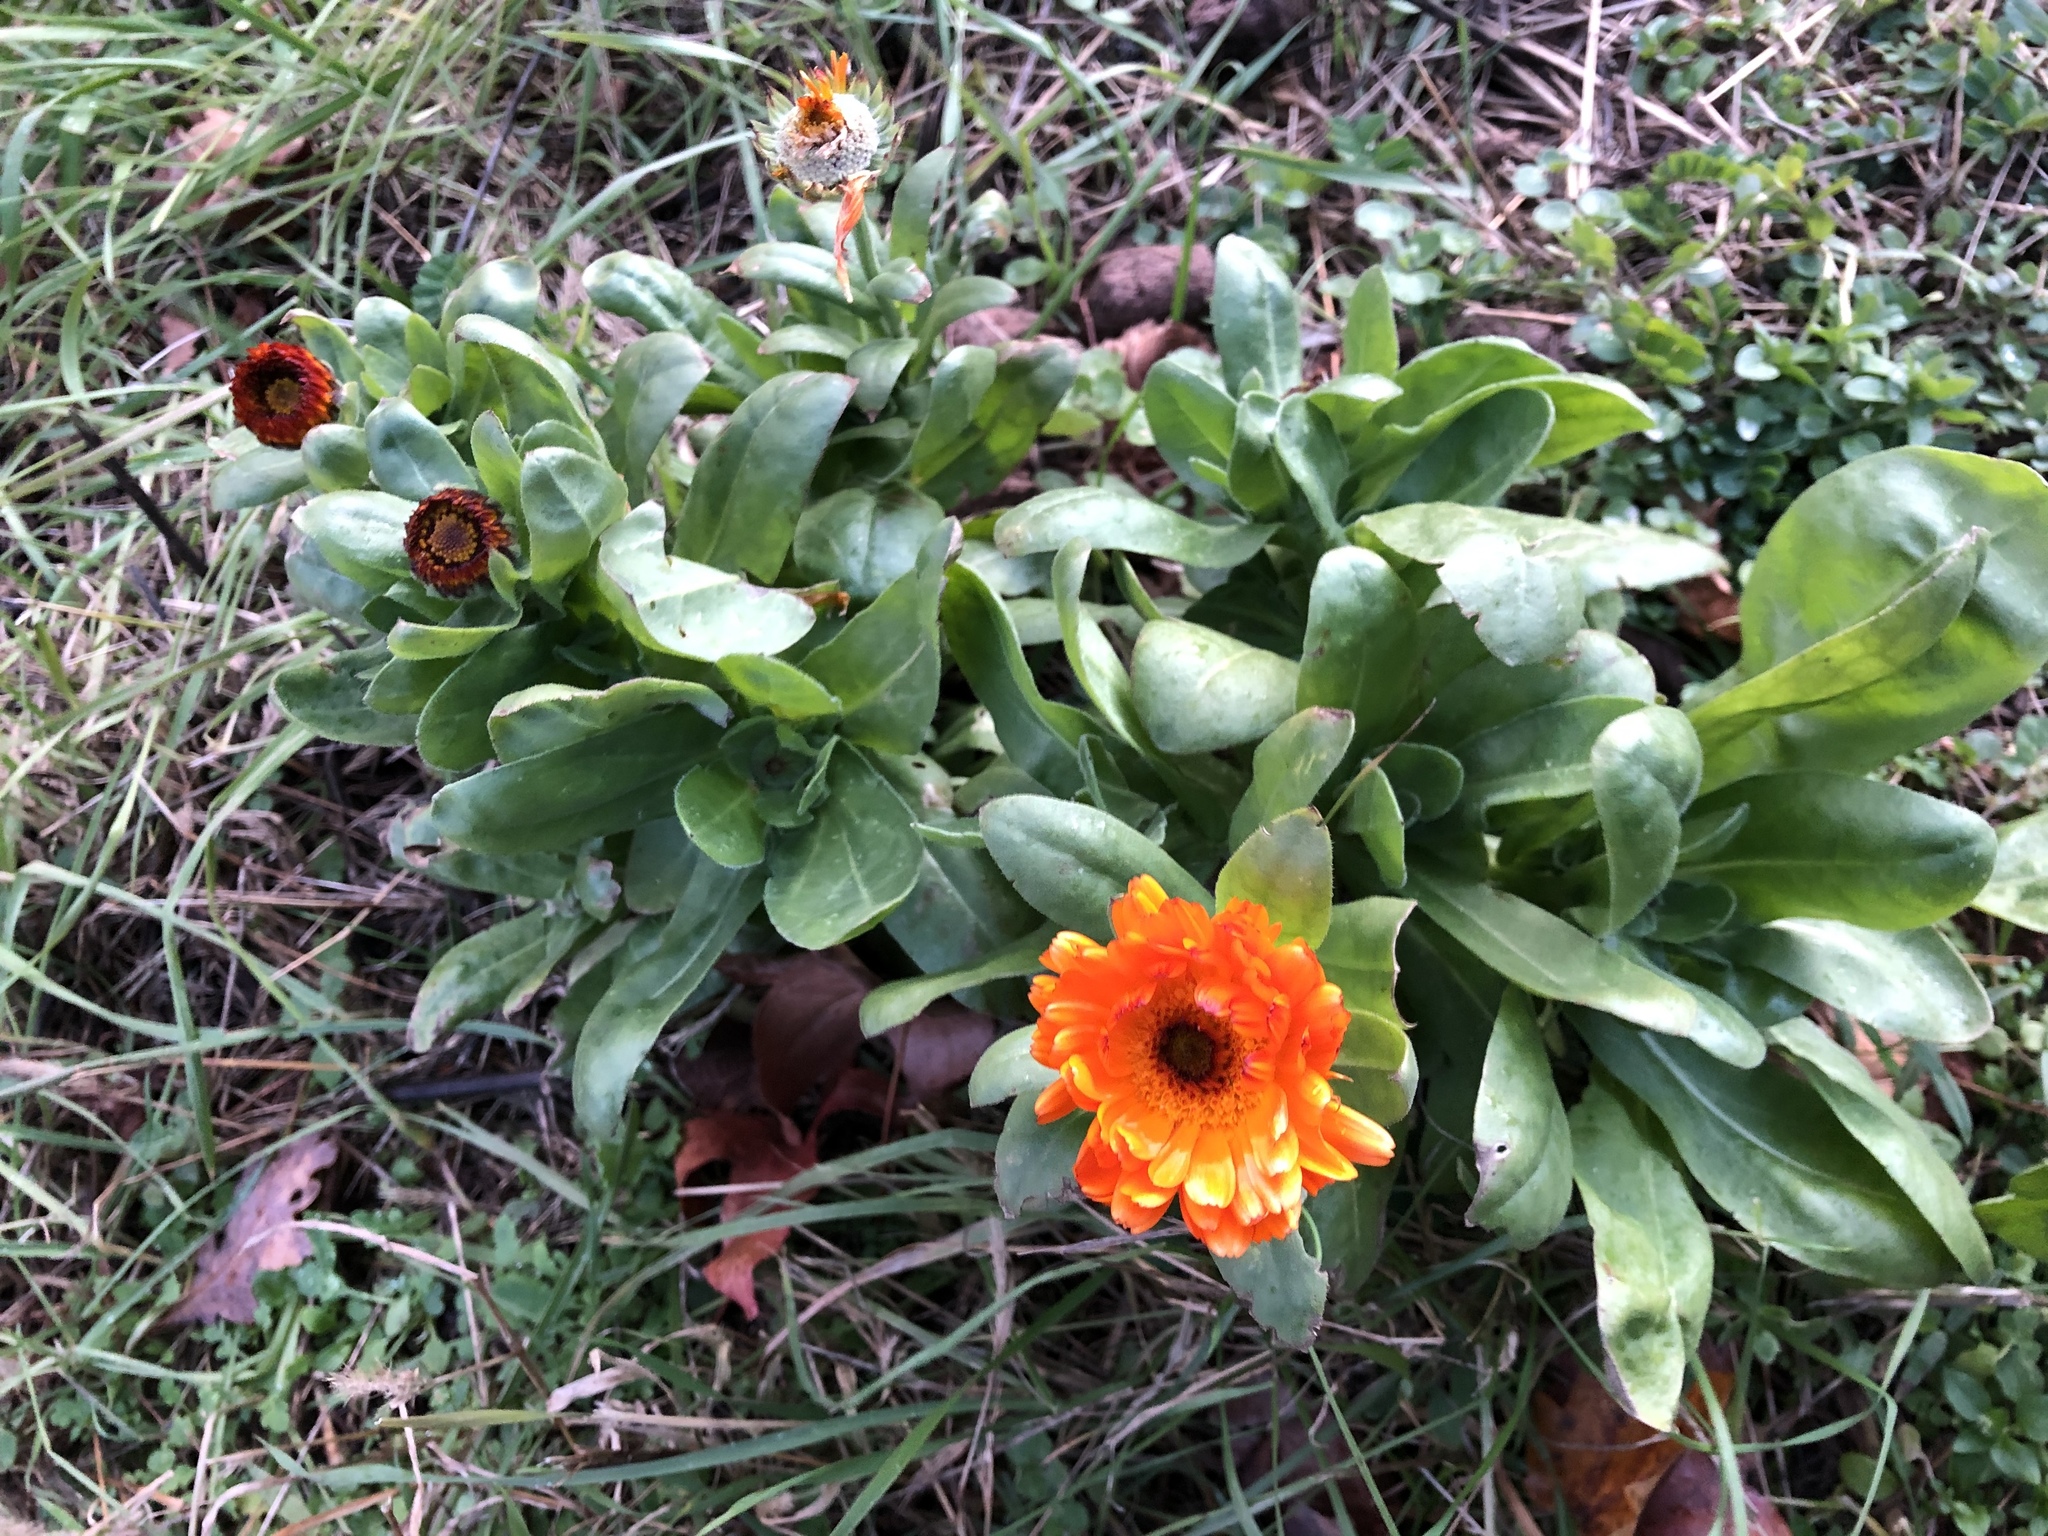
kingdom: Plantae
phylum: Tracheophyta
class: Magnoliopsida
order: Asterales
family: Asteraceae
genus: Calendula
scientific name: Calendula officinalis
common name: Pot marigold
